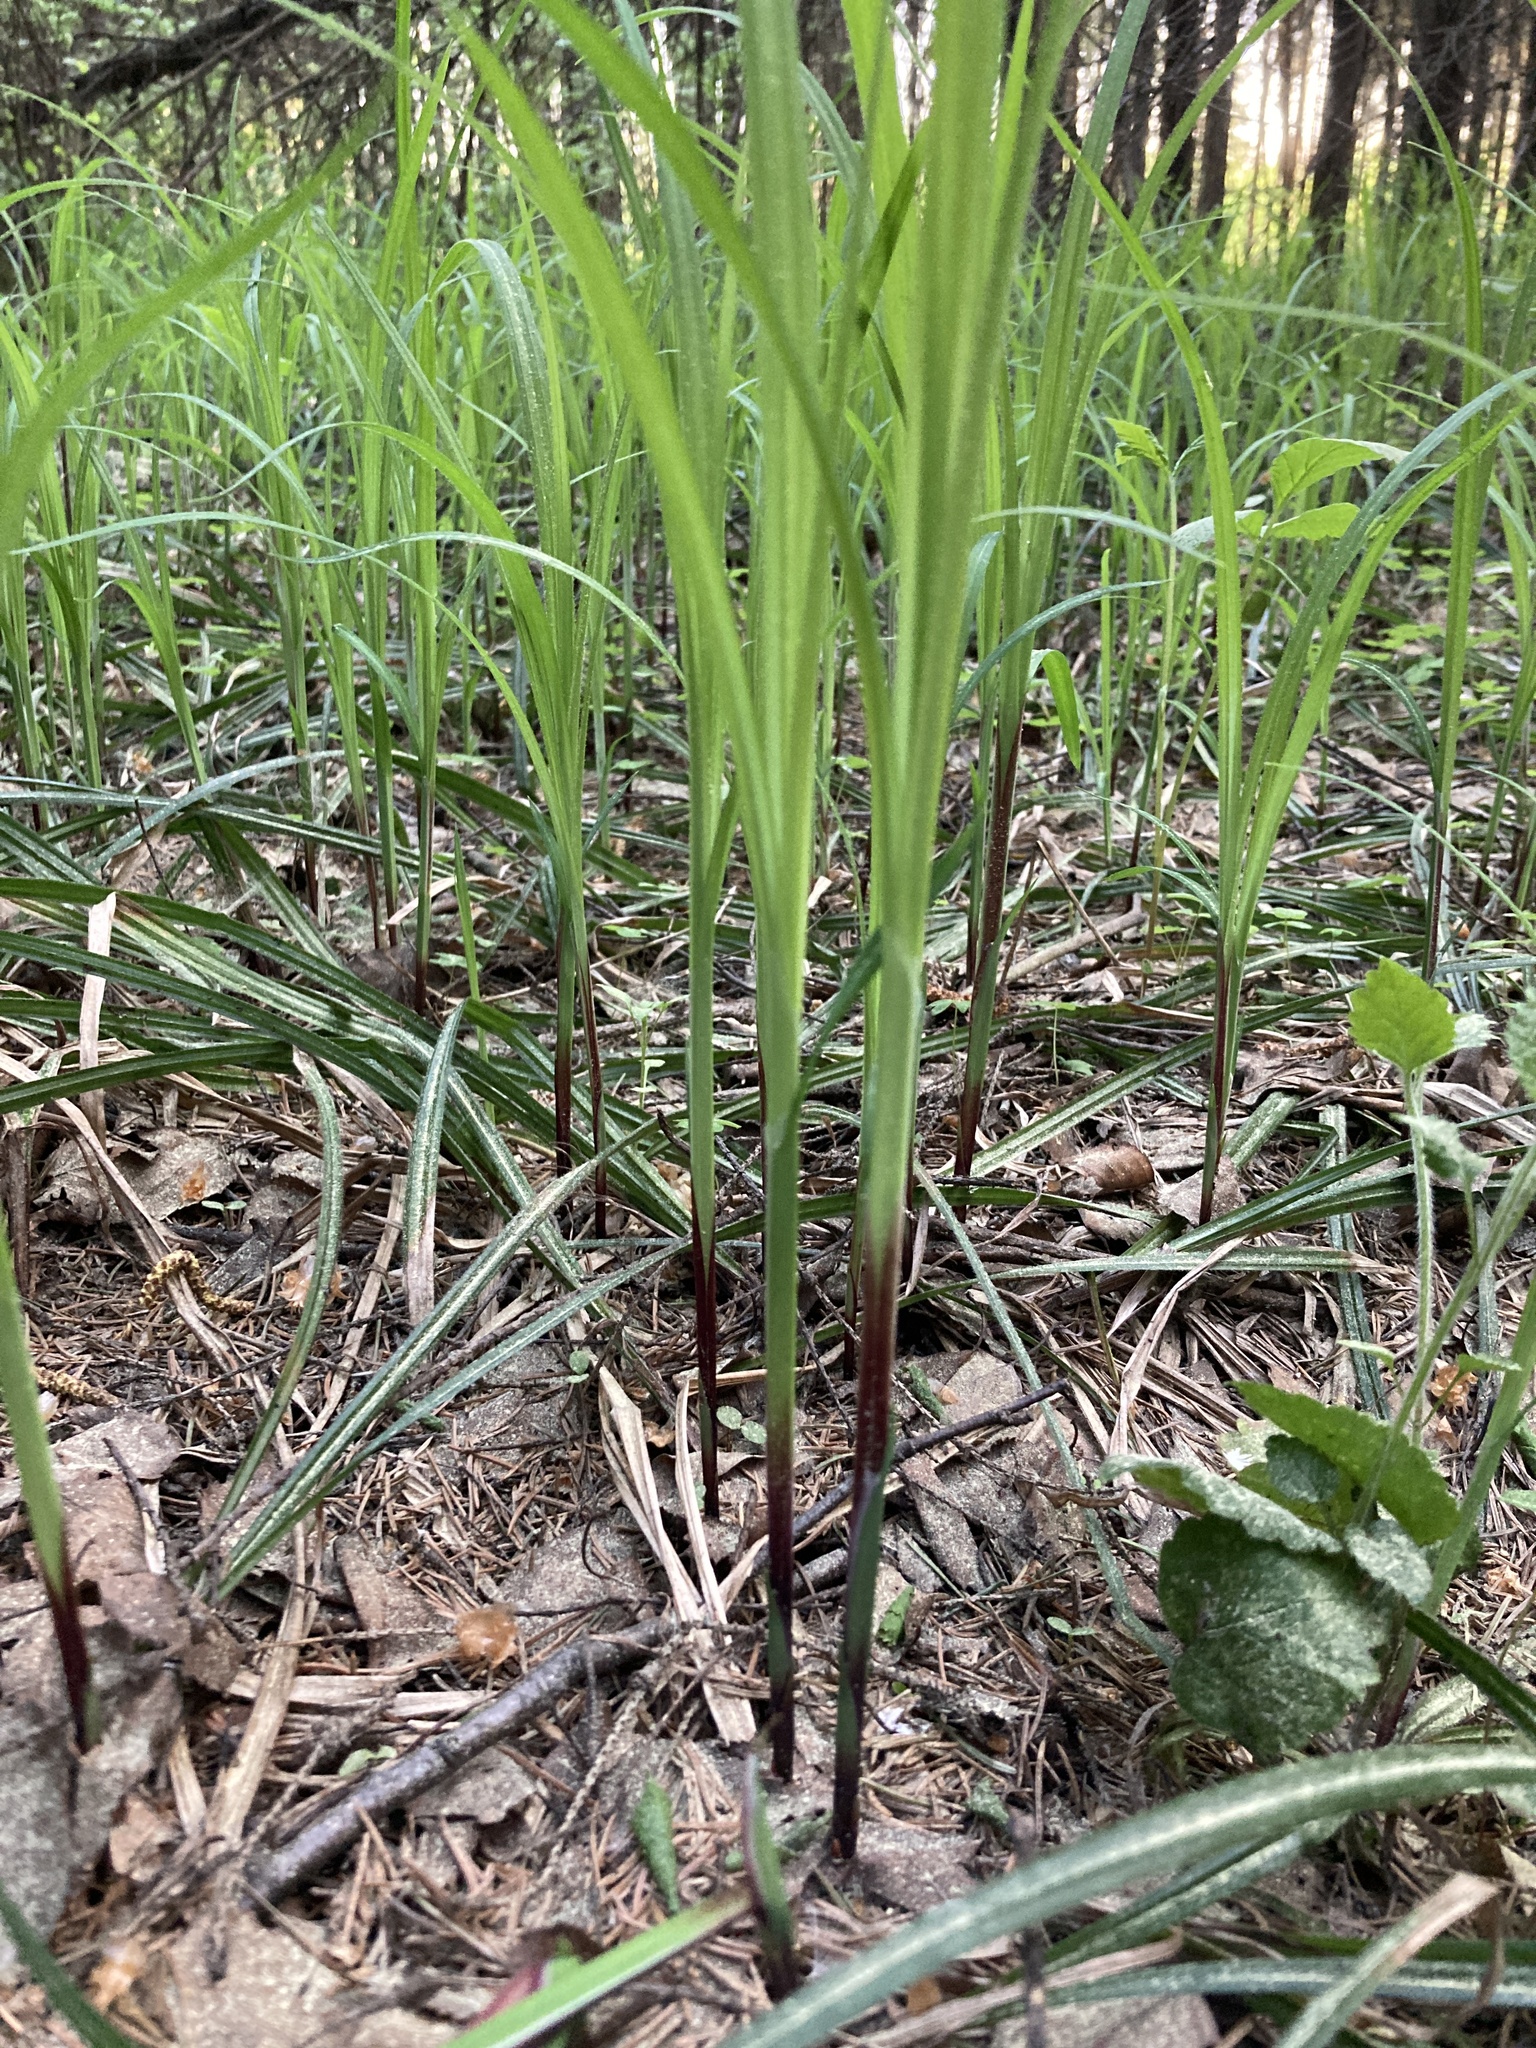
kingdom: Plantae
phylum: Tracheophyta
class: Liliopsida
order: Poales
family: Cyperaceae
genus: Carex
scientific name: Carex pilosa
